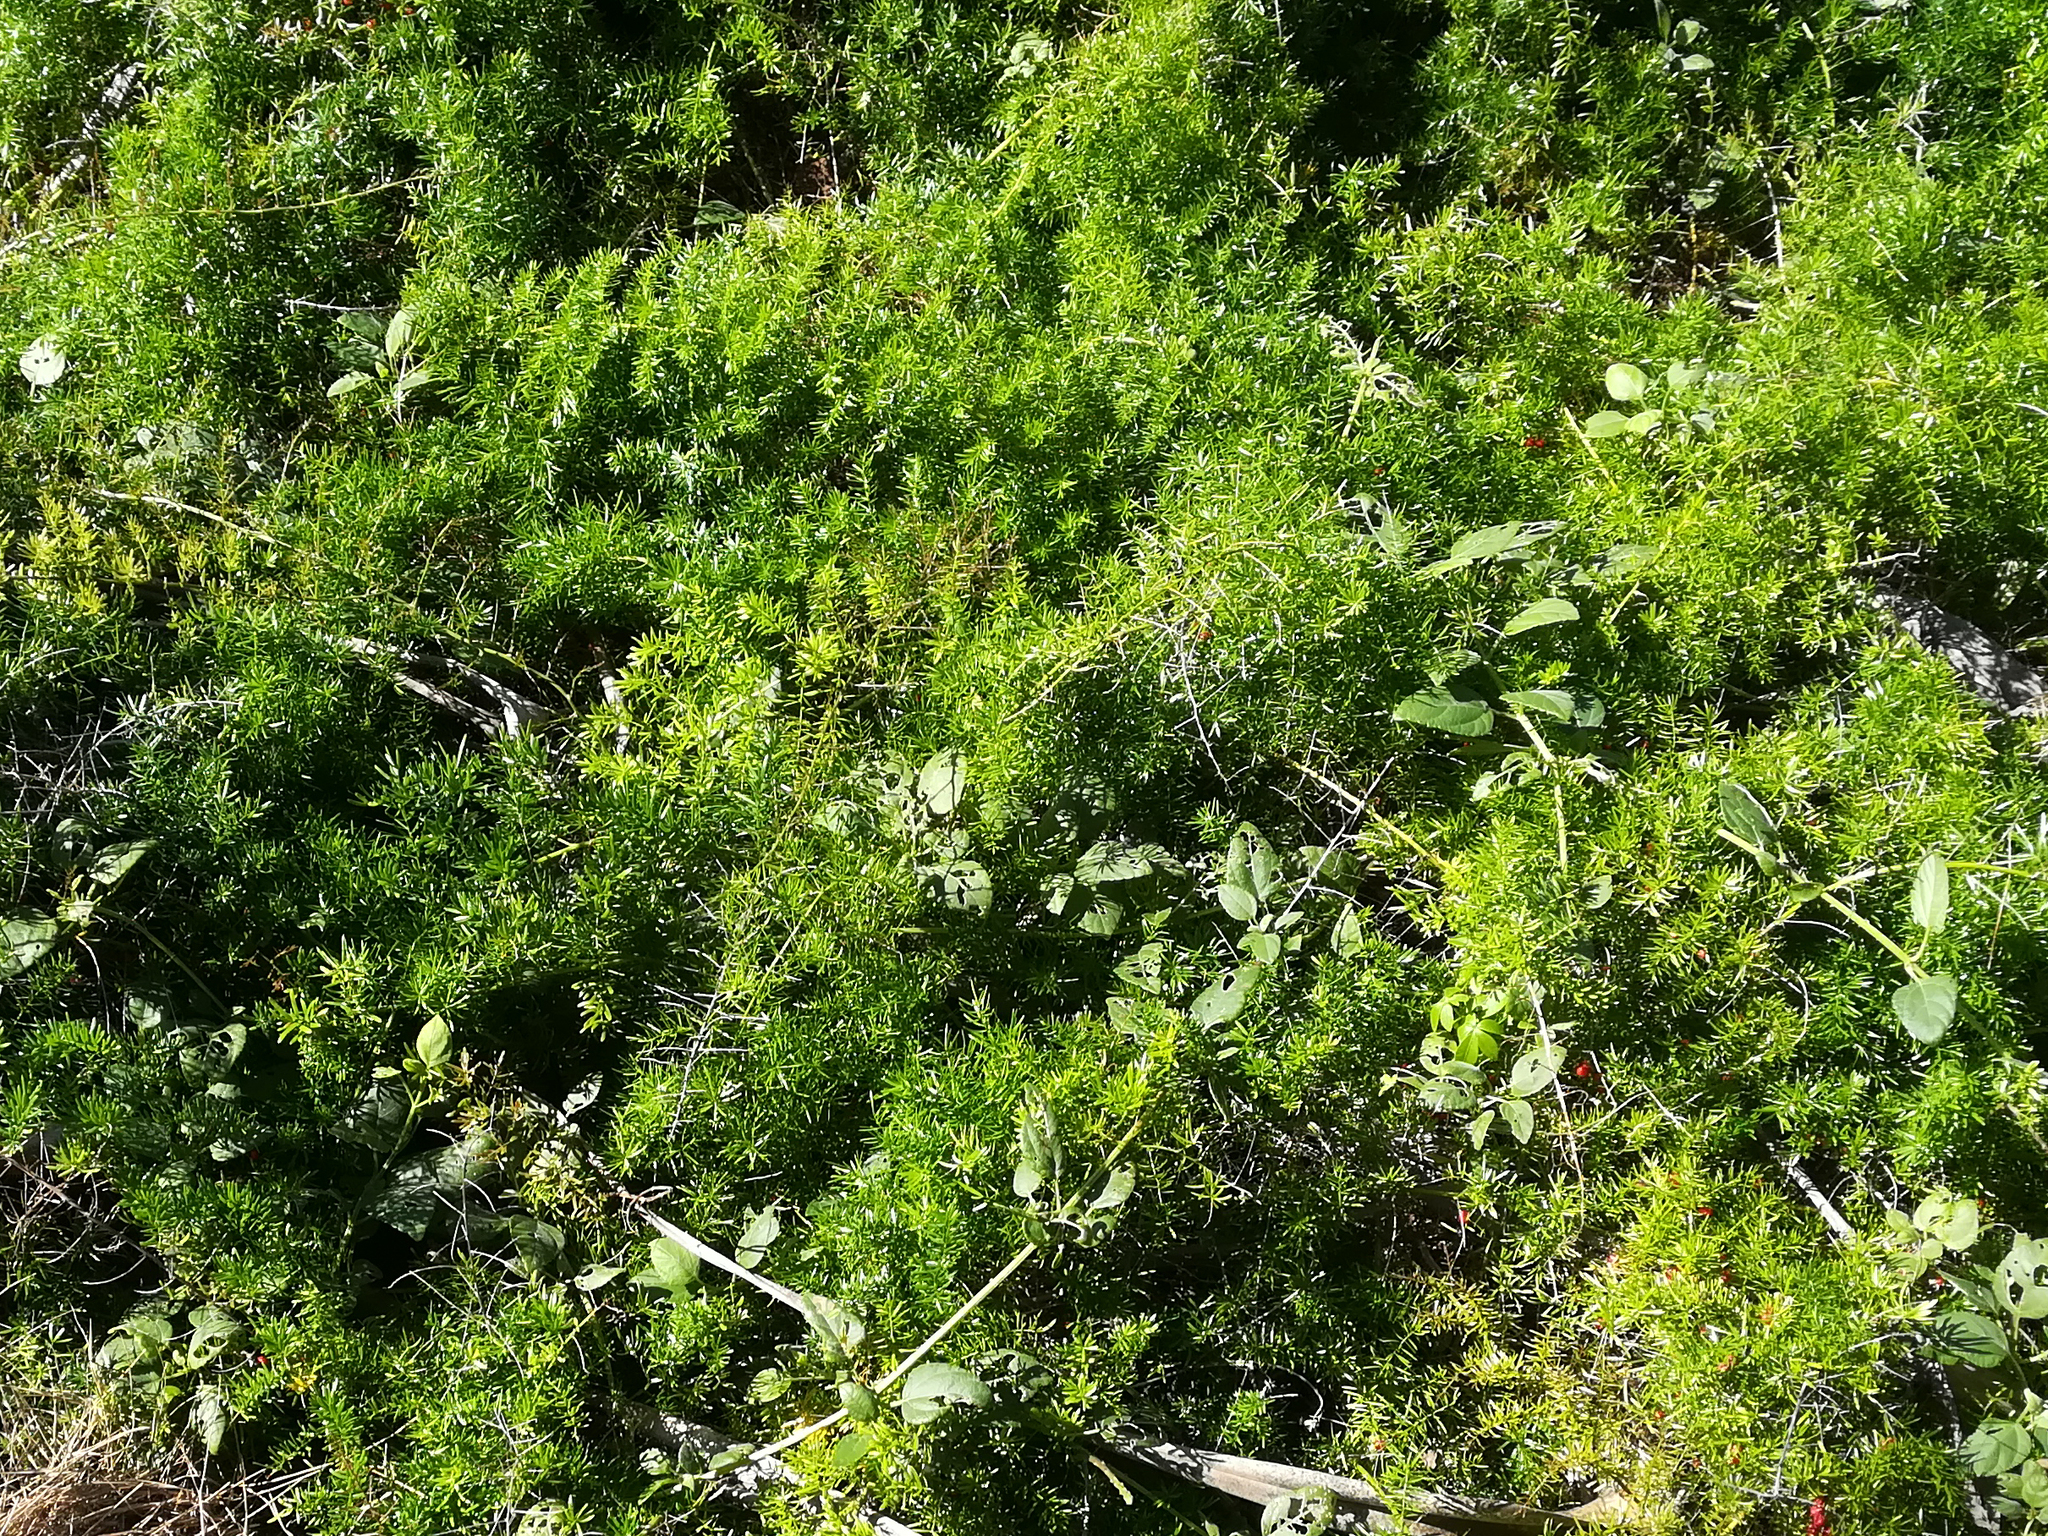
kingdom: Plantae
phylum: Tracheophyta
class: Liliopsida
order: Asparagales
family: Asparagaceae
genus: Asparagus
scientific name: Asparagus aethiopicus
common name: Sprenger's asparagus fern
